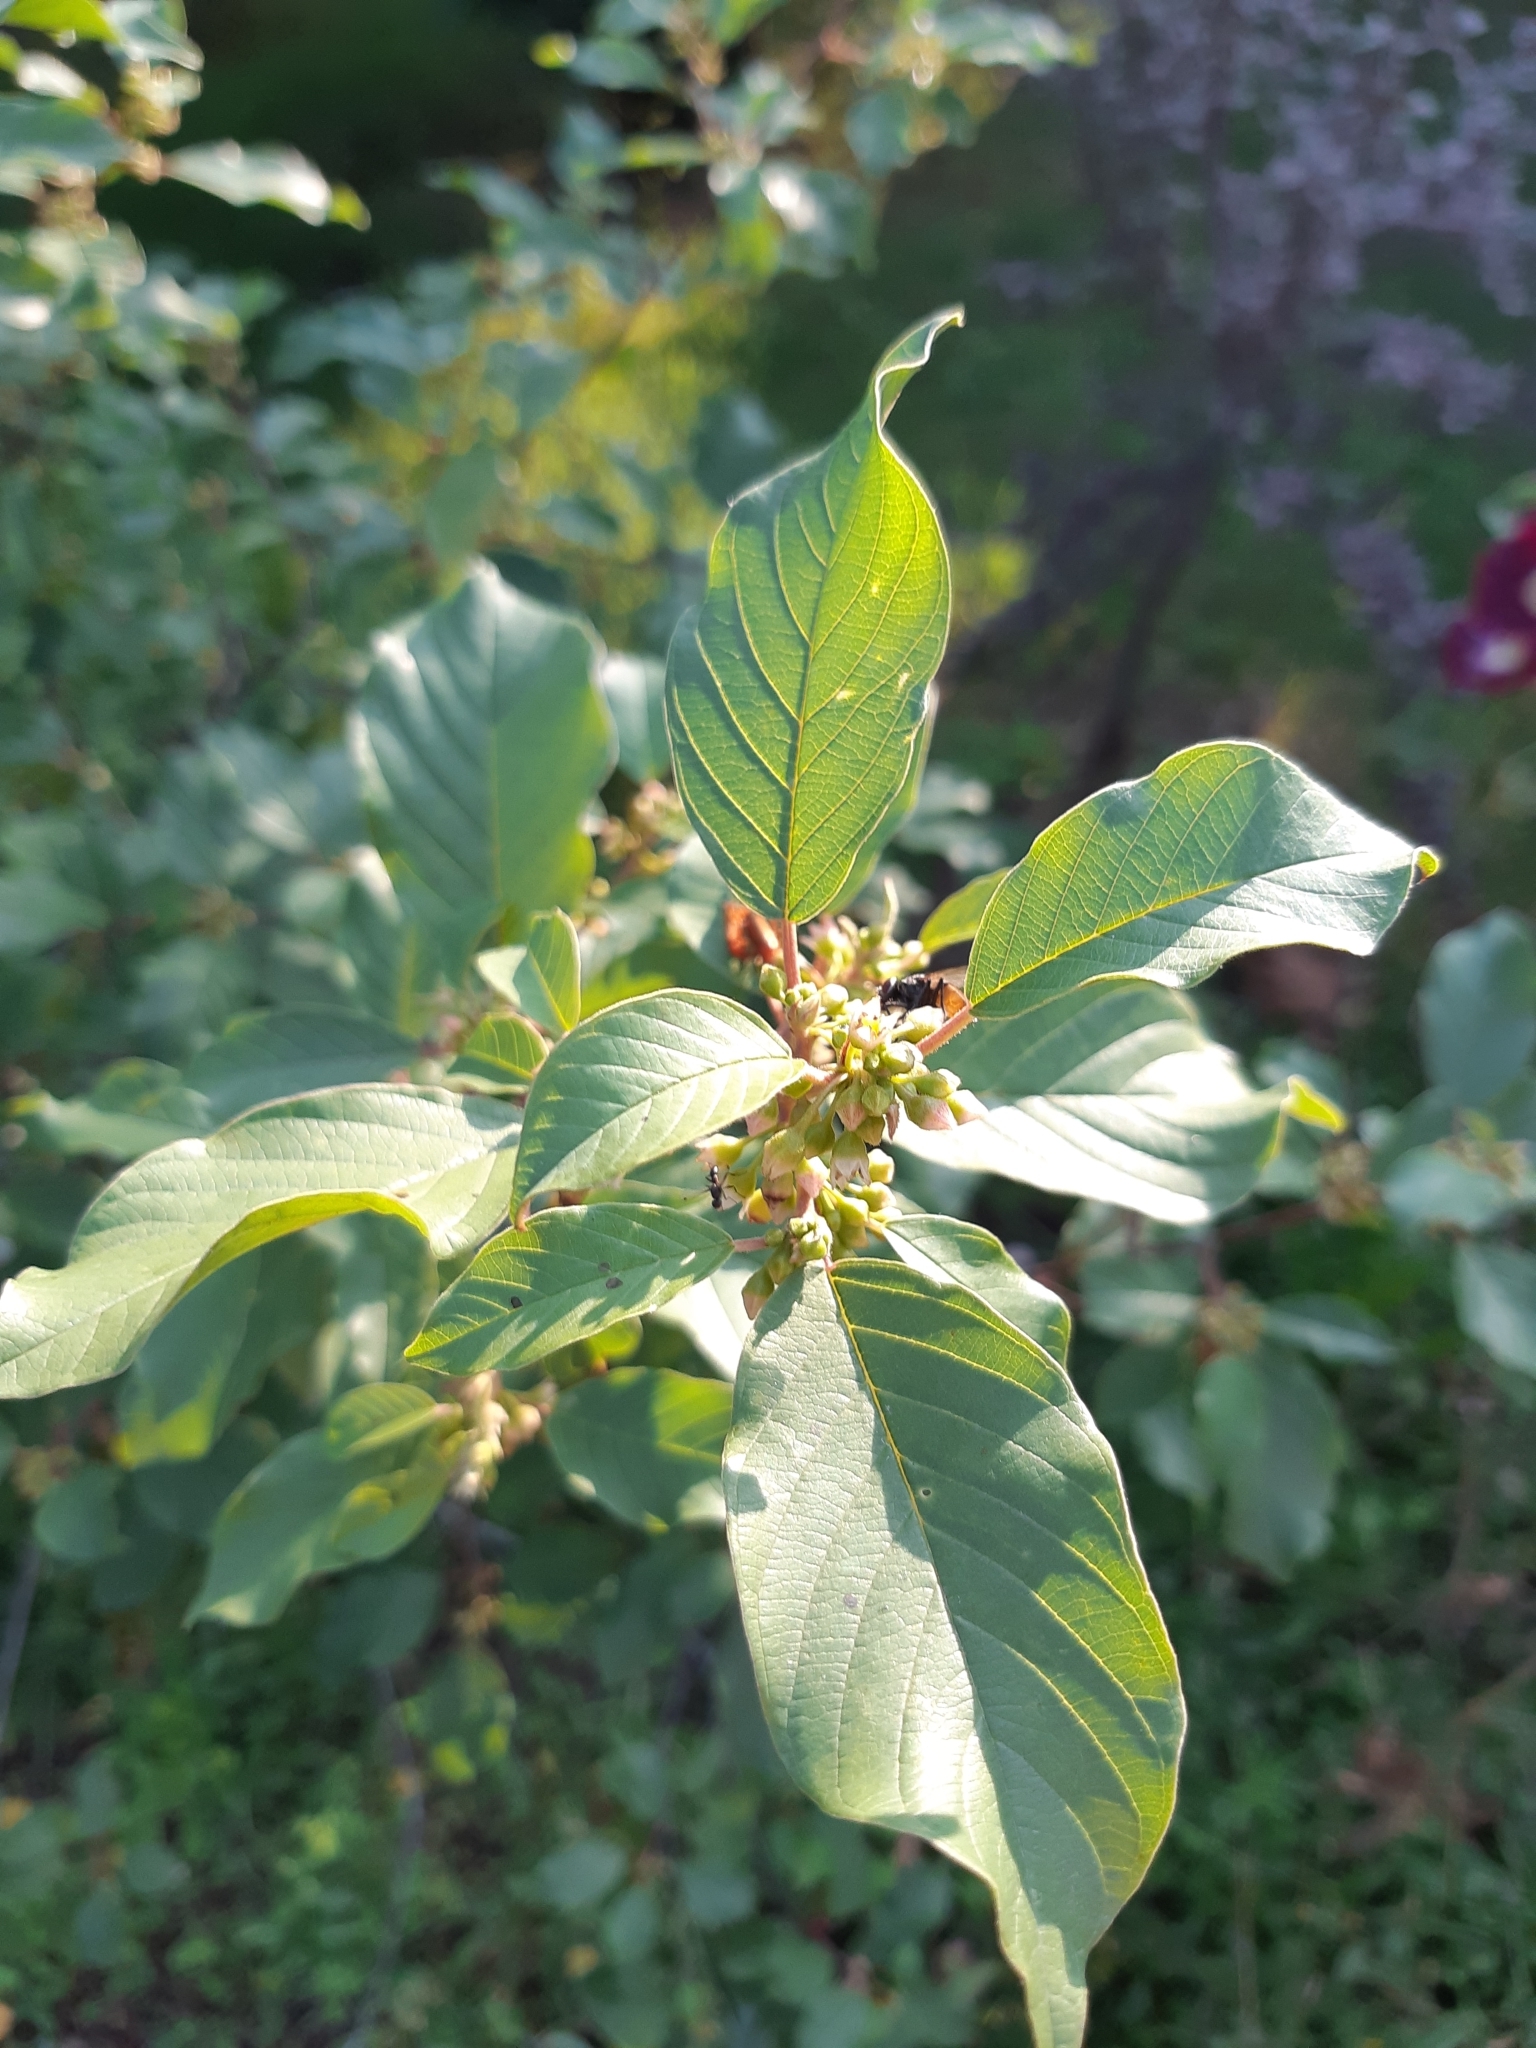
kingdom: Plantae
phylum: Tracheophyta
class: Magnoliopsida
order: Rosales
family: Rhamnaceae
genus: Frangula
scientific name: Frangula alnus
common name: Alder buckthorn
